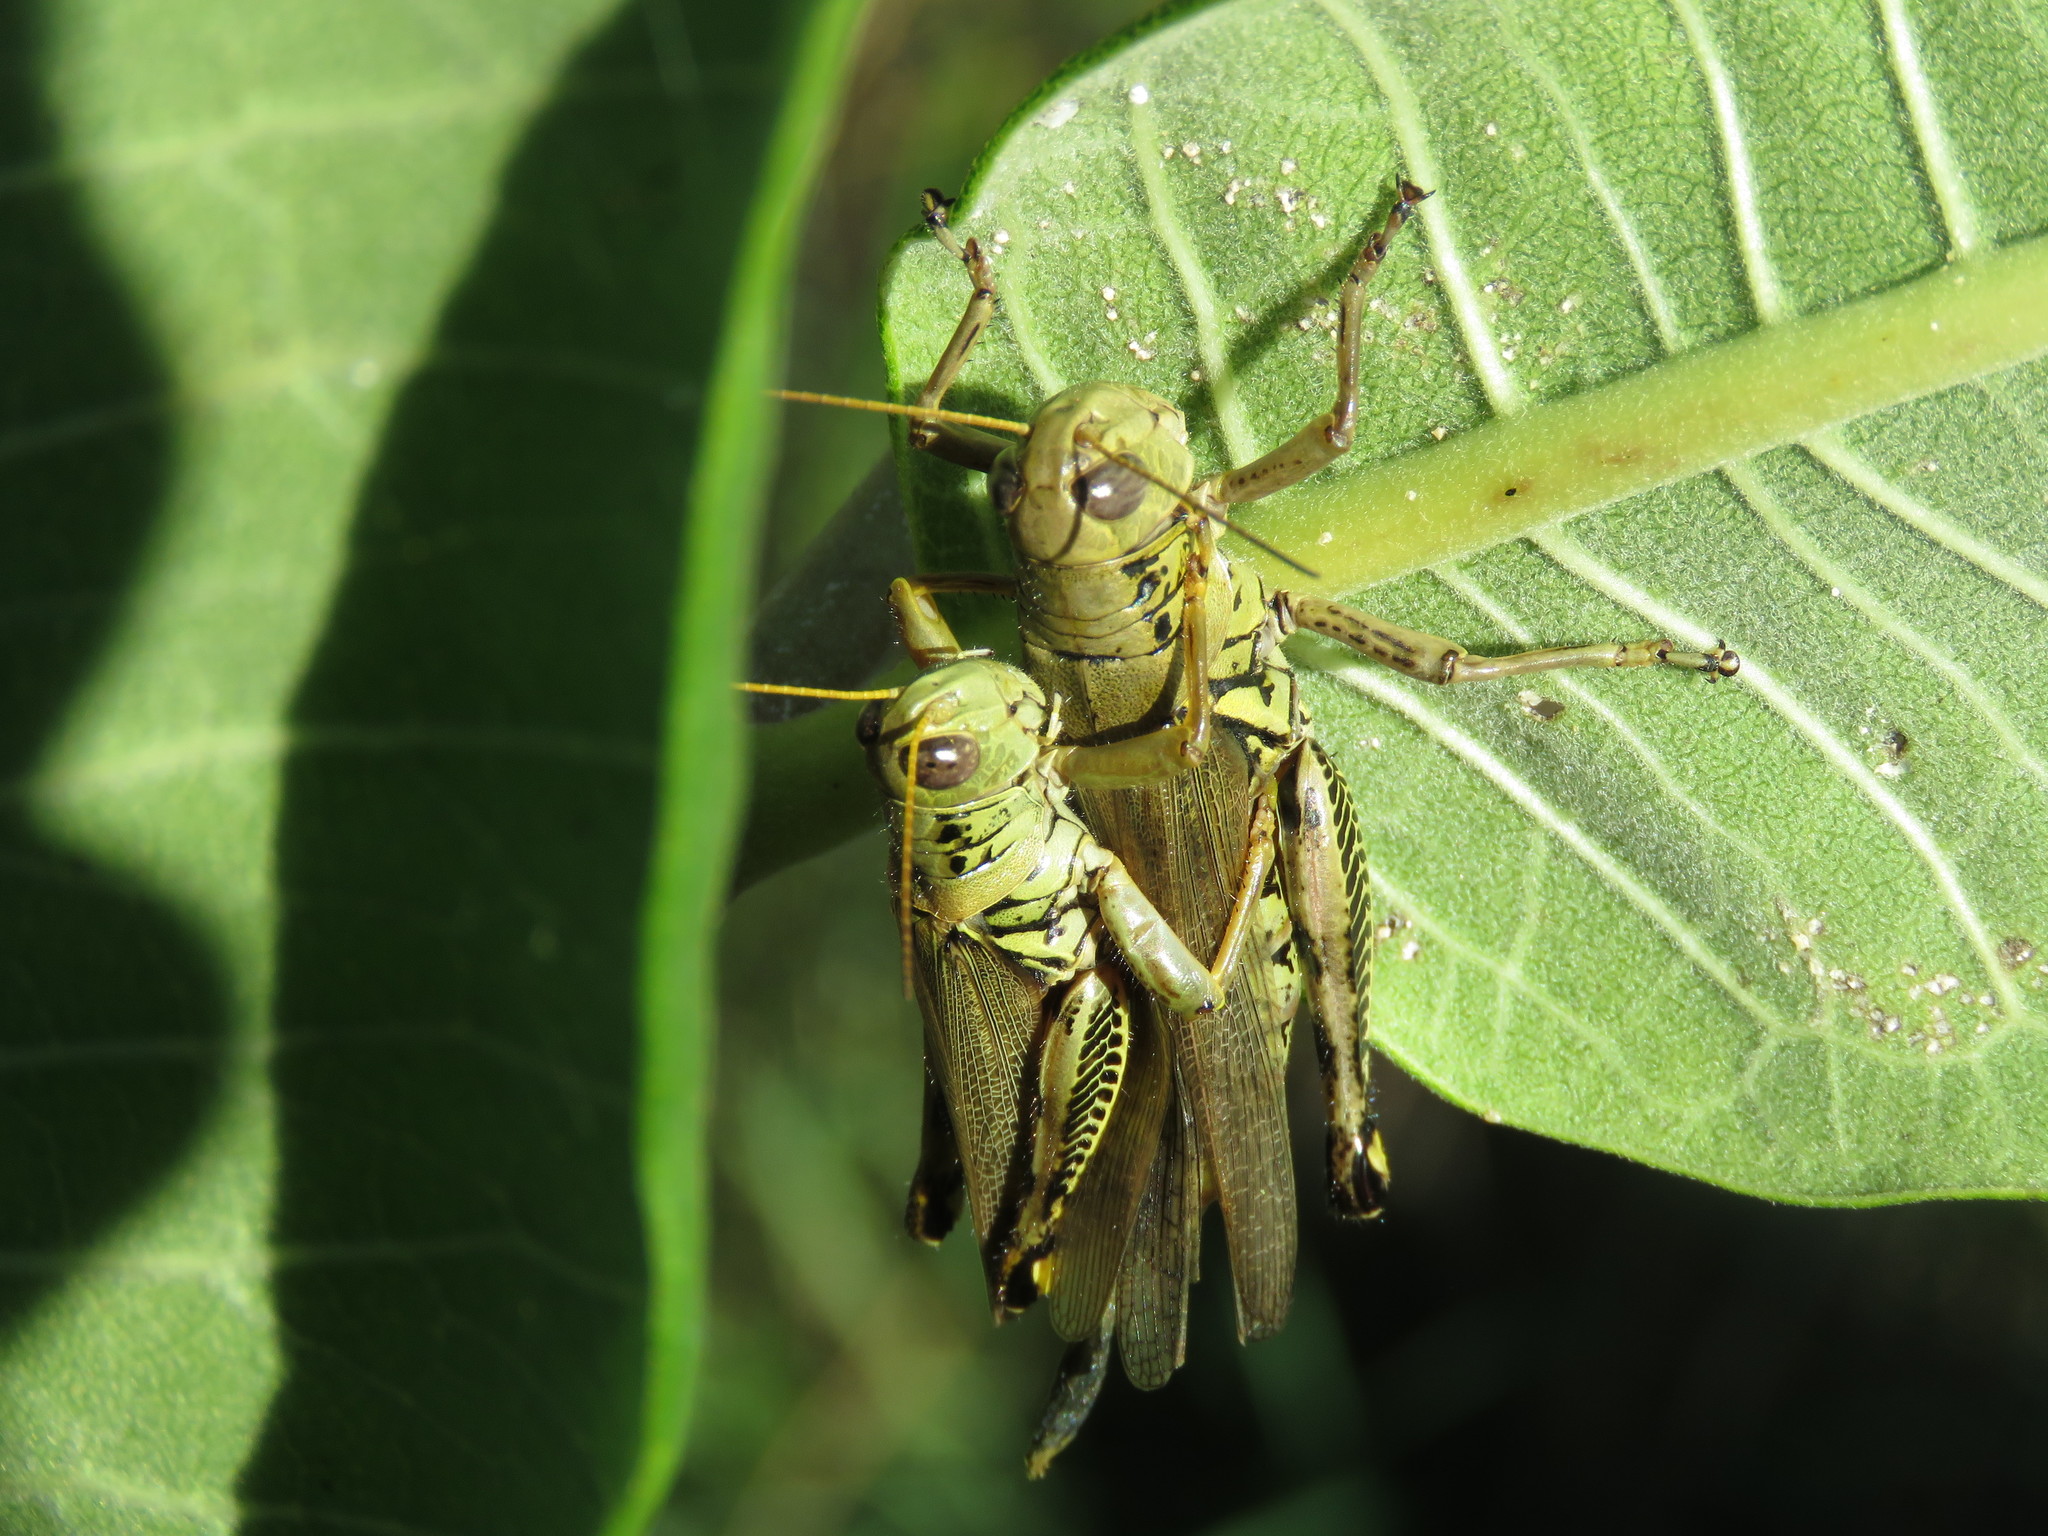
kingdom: Animalia
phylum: Arthropoda
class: Insecta
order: Orthoptera
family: Acrididae
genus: Melanoplus
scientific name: Melanoplus differentialis
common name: Differential grasshopper
